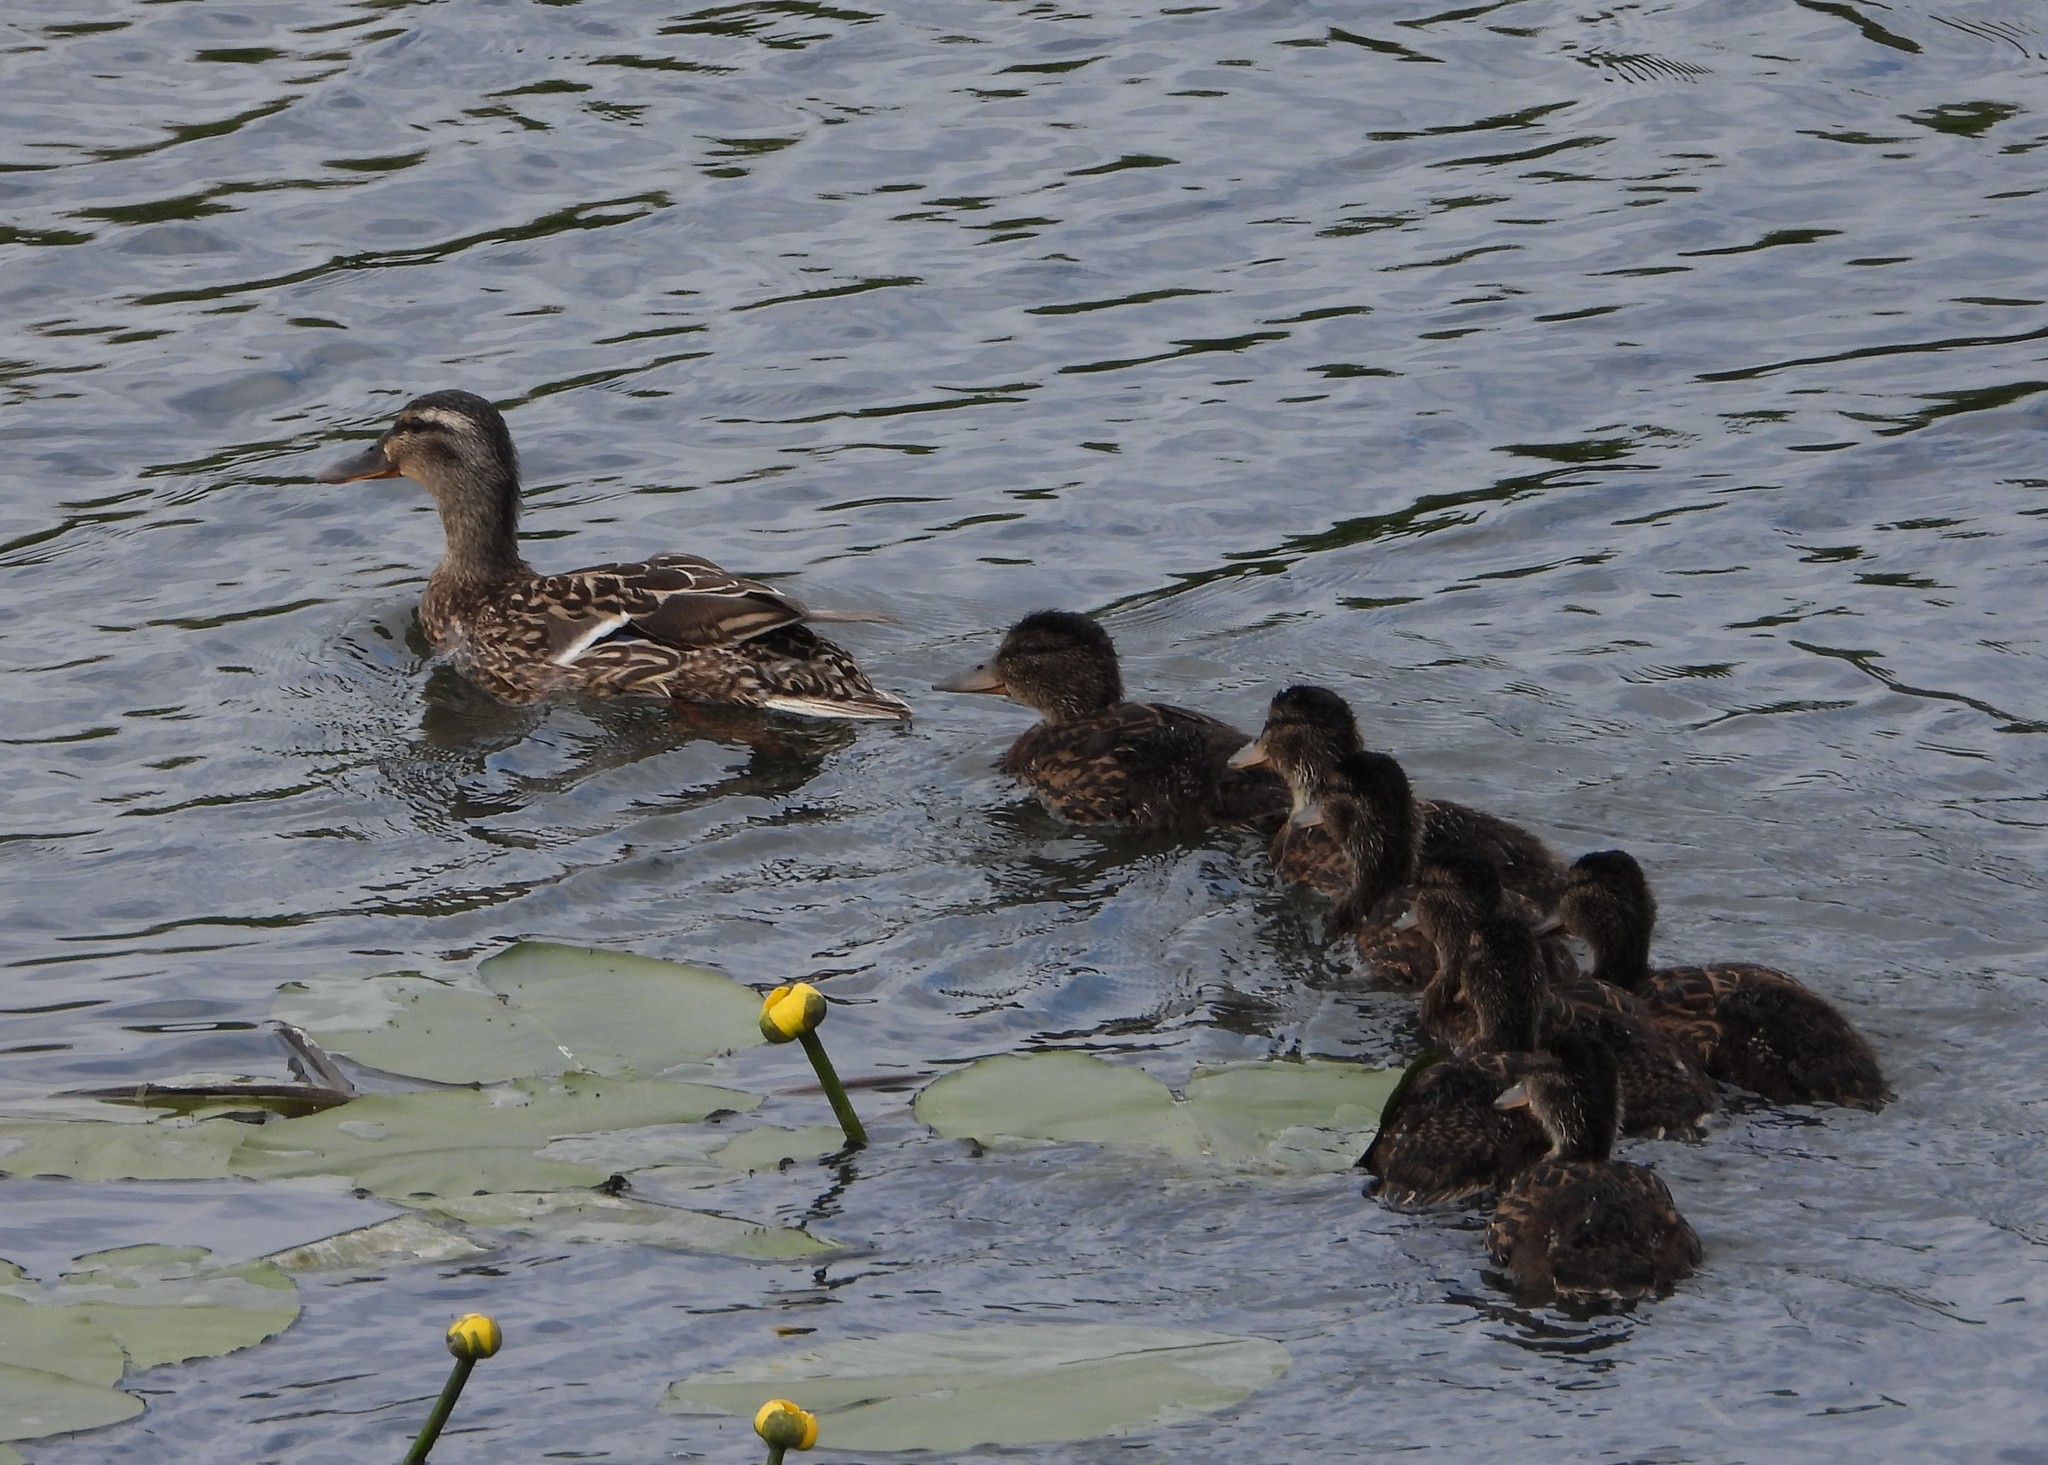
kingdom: Animalia
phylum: Chordata
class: Aves
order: Anseriformes
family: Anatidae
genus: Anas
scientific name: Anas platyrhynchos
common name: Mallard
